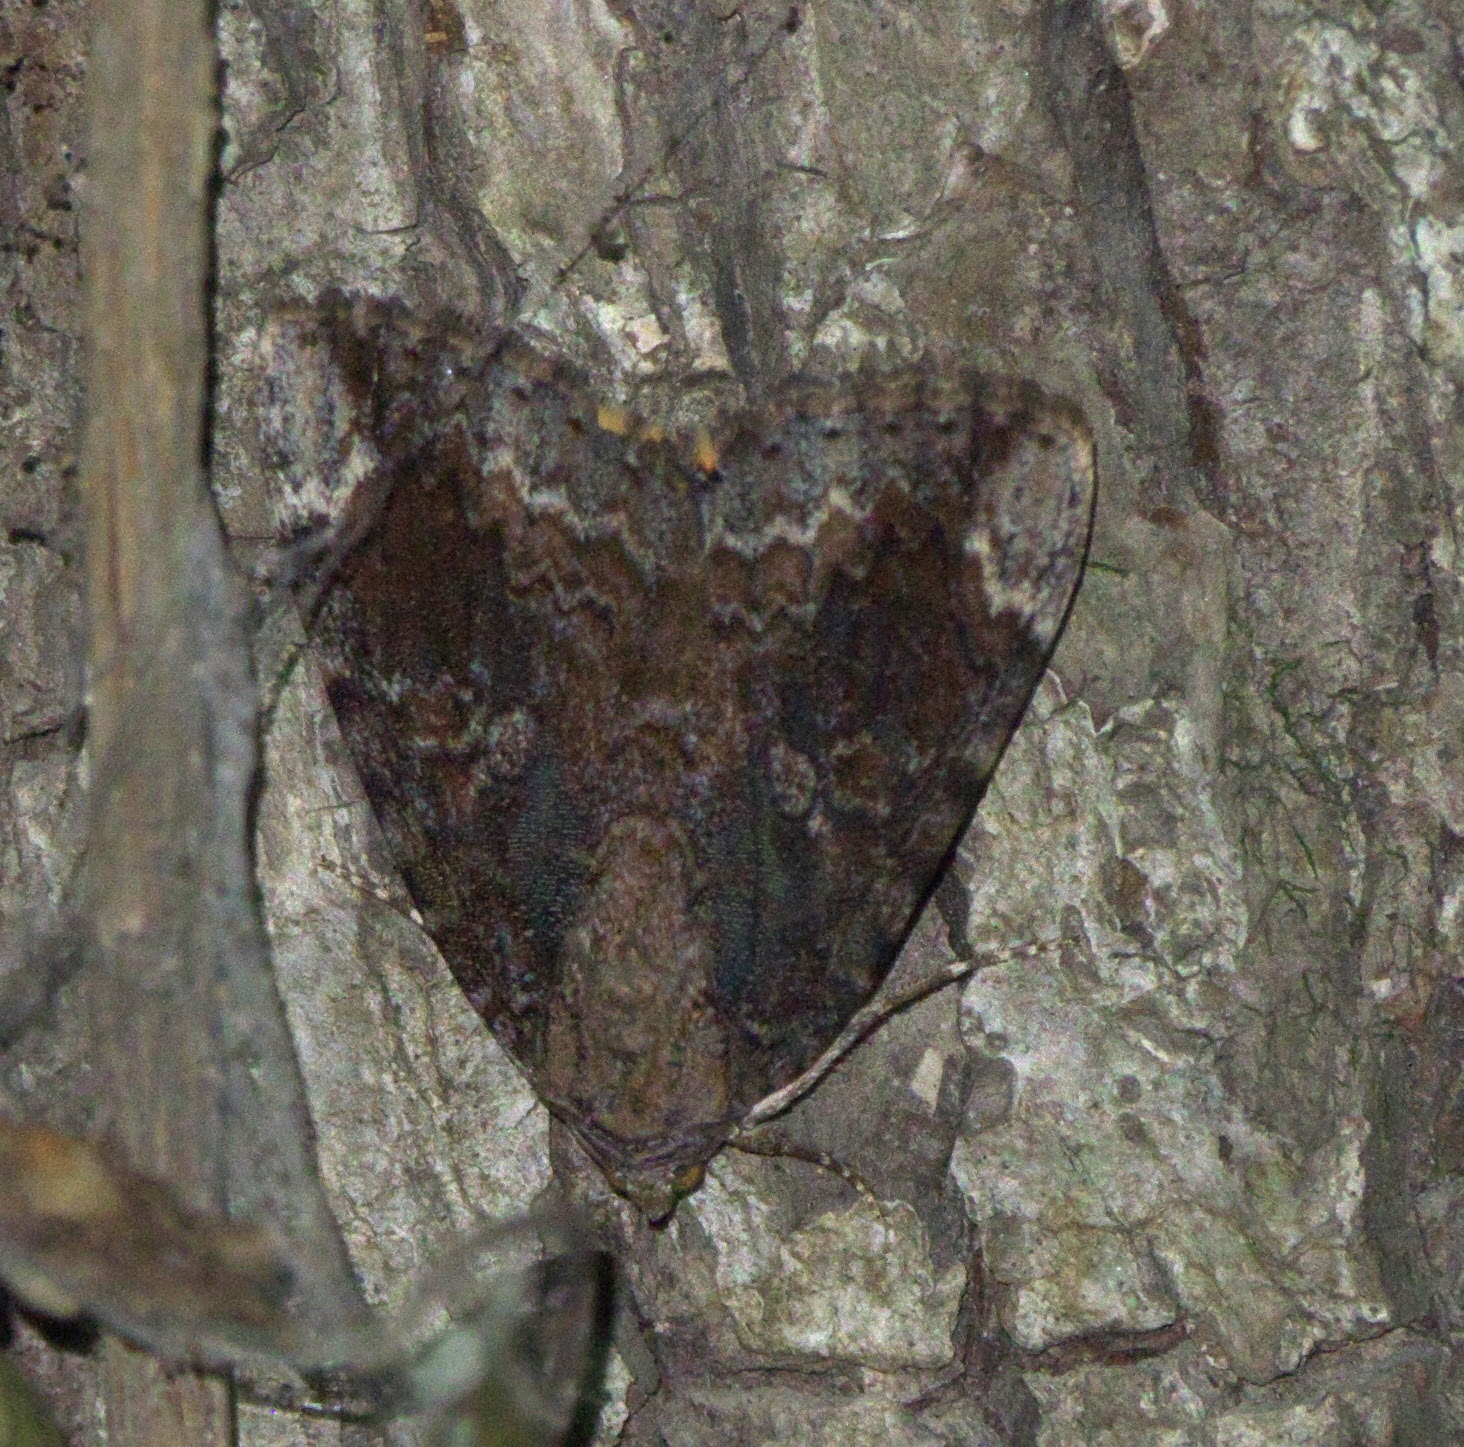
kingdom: Animalia
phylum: Arthropoda
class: Insecta
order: Lepidoptera
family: Erebidae
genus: Catocala
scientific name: Catocala innubens
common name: Betrothed underwing
